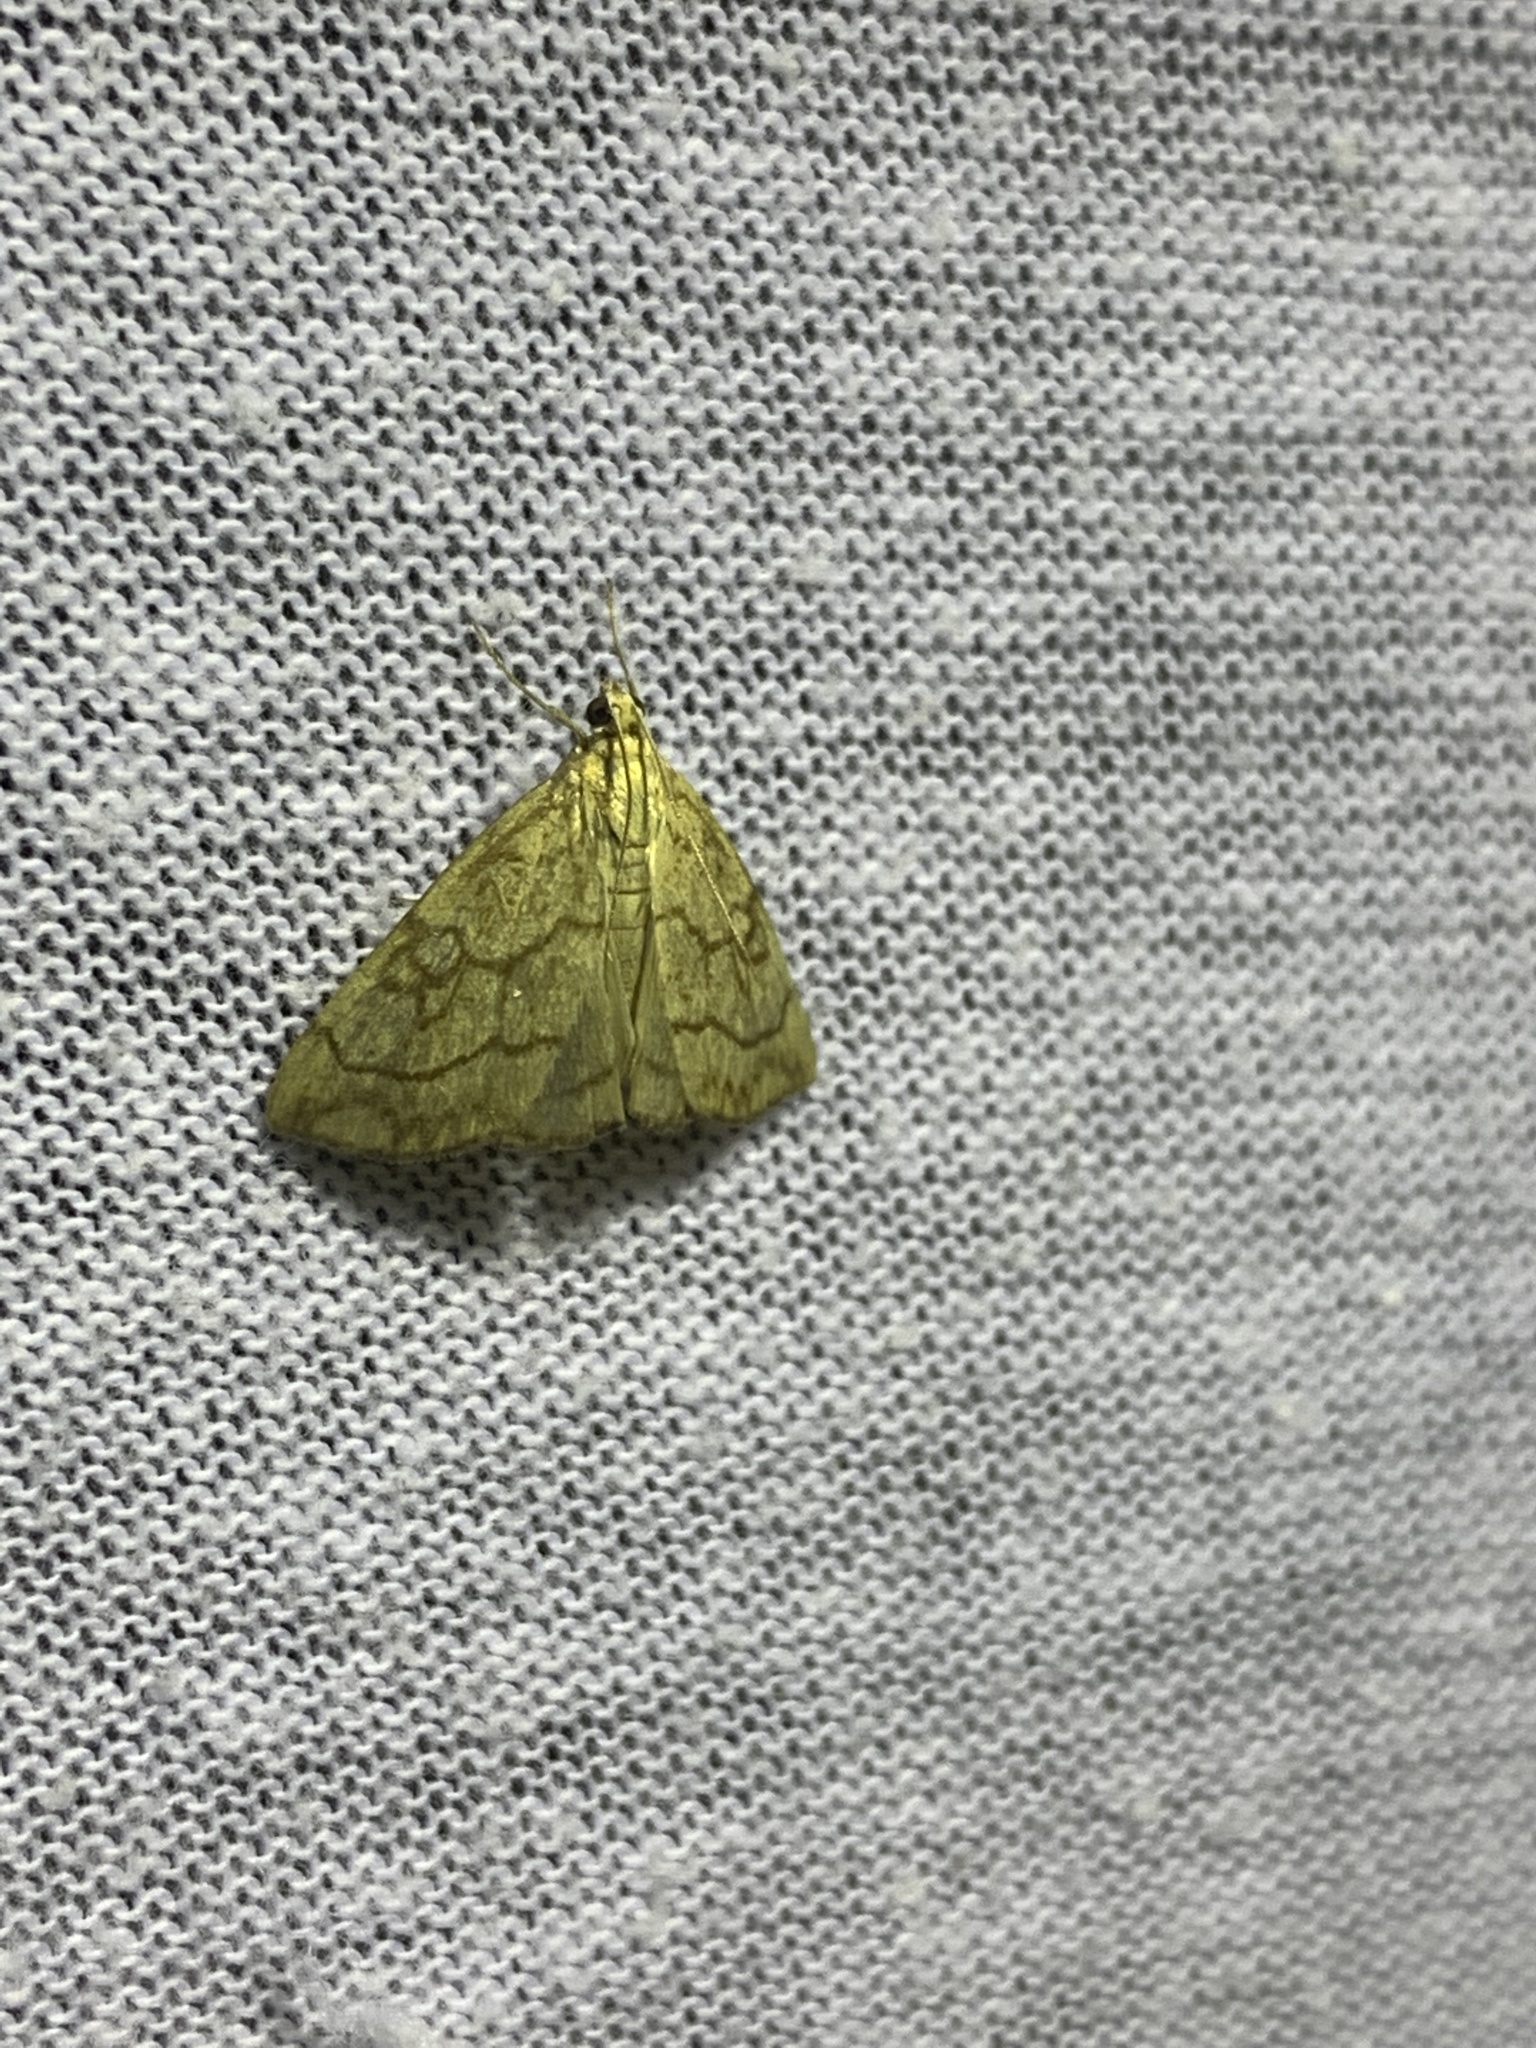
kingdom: Animalia
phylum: Arthropoda
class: Insecta
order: Lepidoptera
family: Crambidae
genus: Evergestis
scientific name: Evergestis pallidata
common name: Chequered pearl
